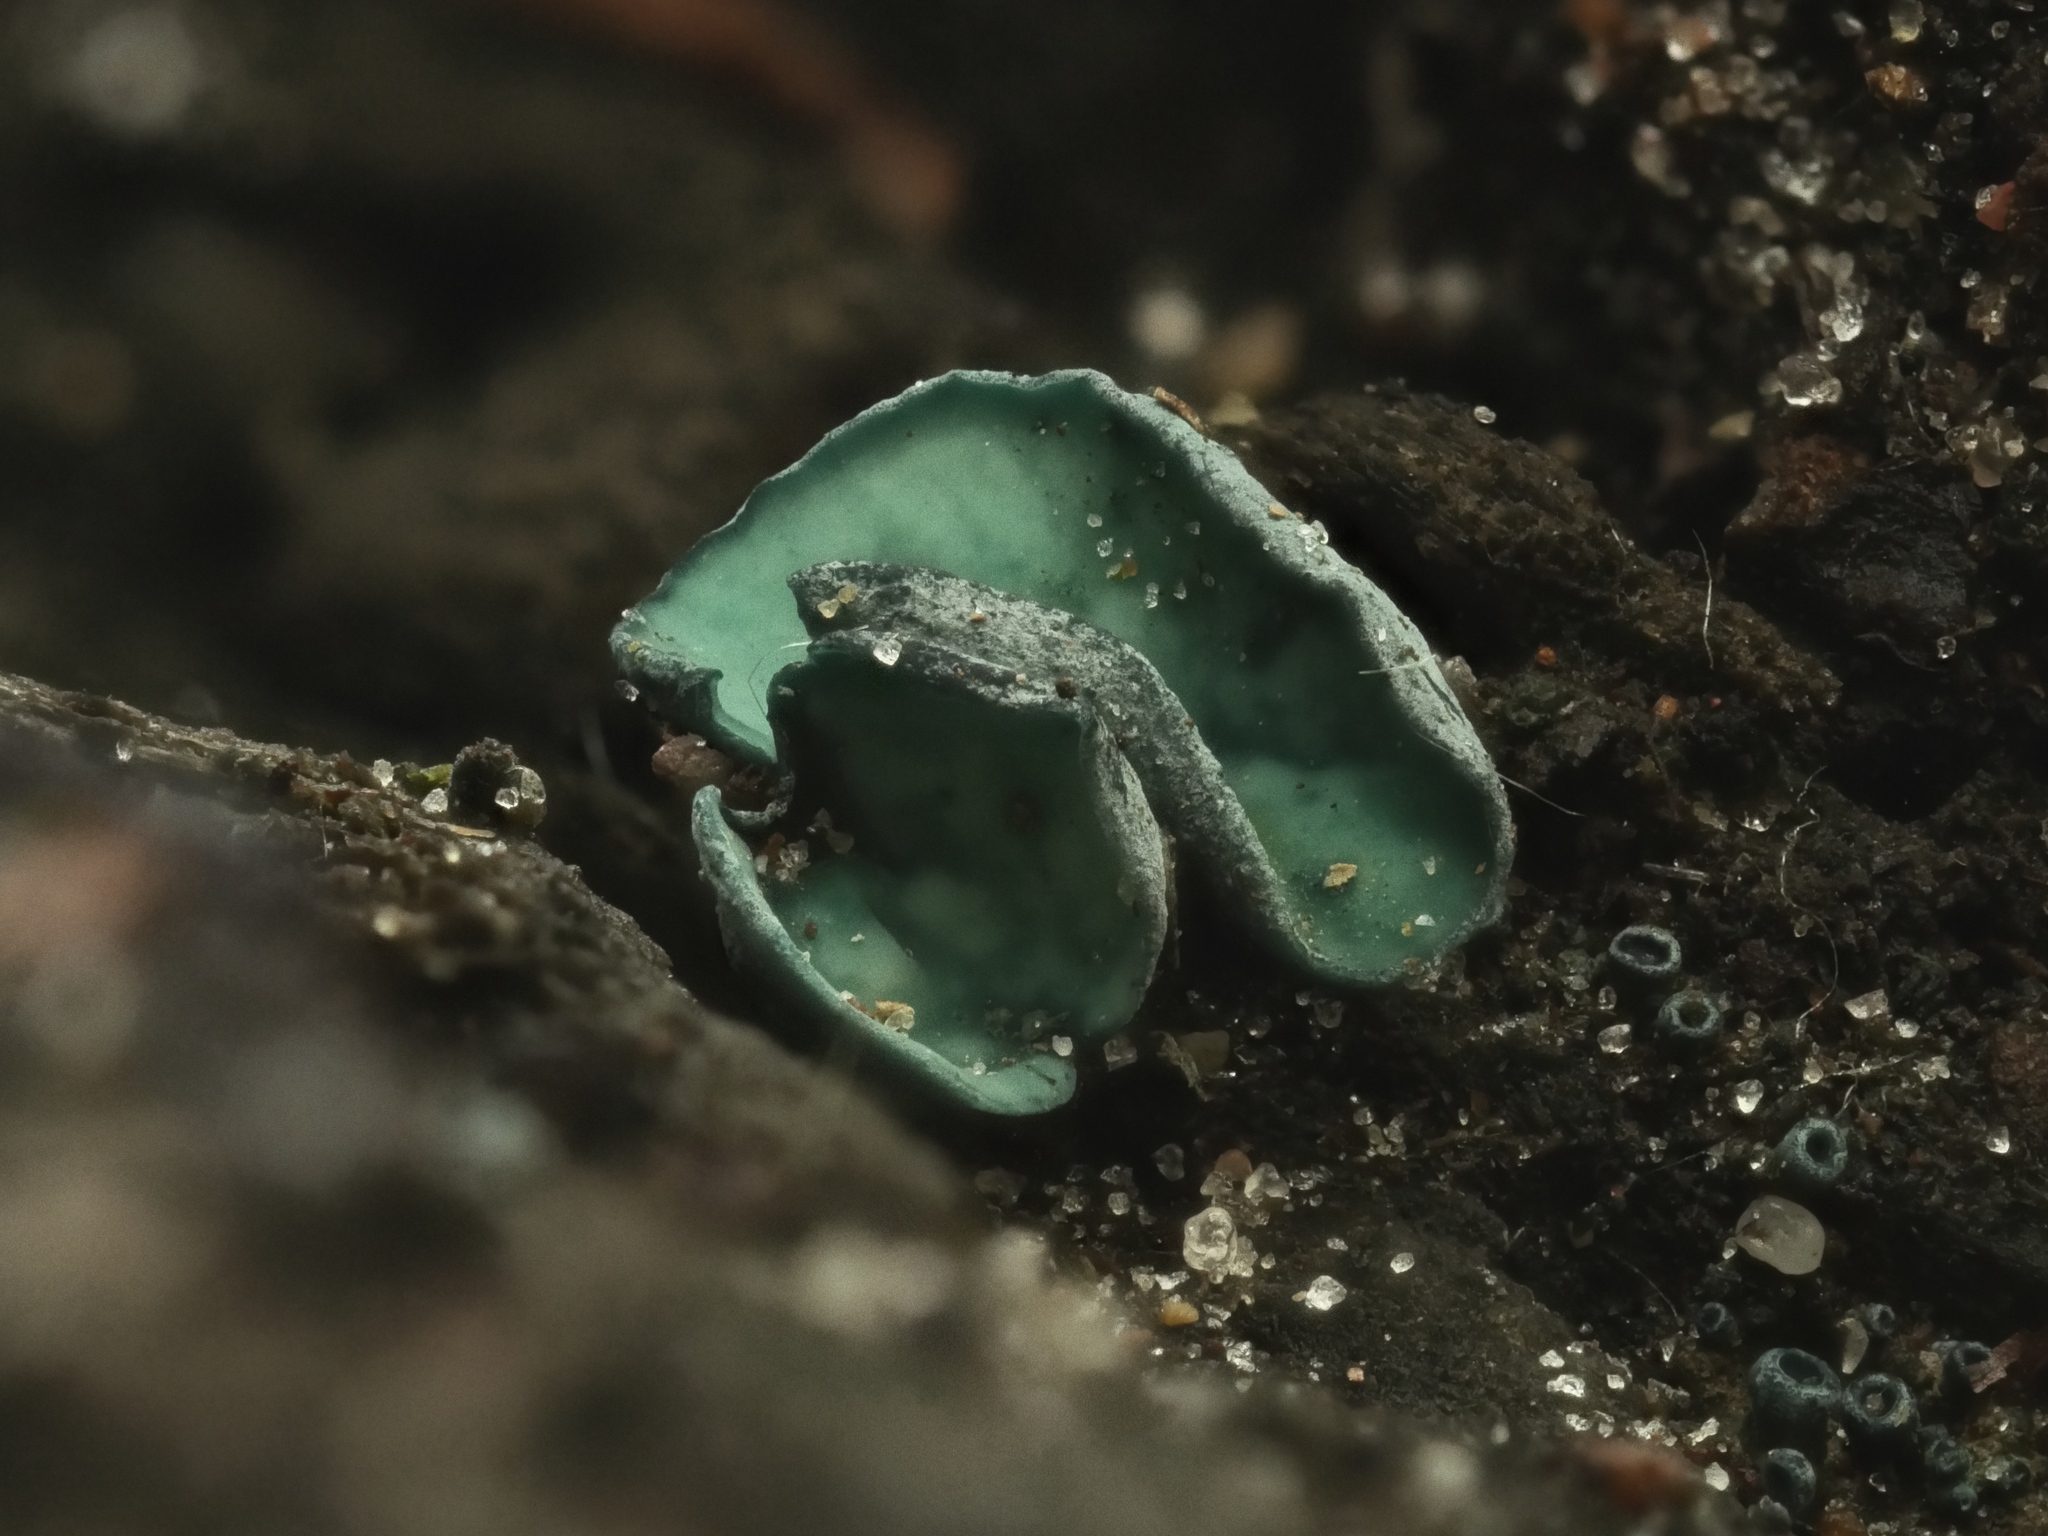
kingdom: Fungi
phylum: Ascomycota
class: Leotiomycetes
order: Helotiales
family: Chlorociboriaceae
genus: Chlorociboria
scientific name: Chlorociboria aeruginascens
